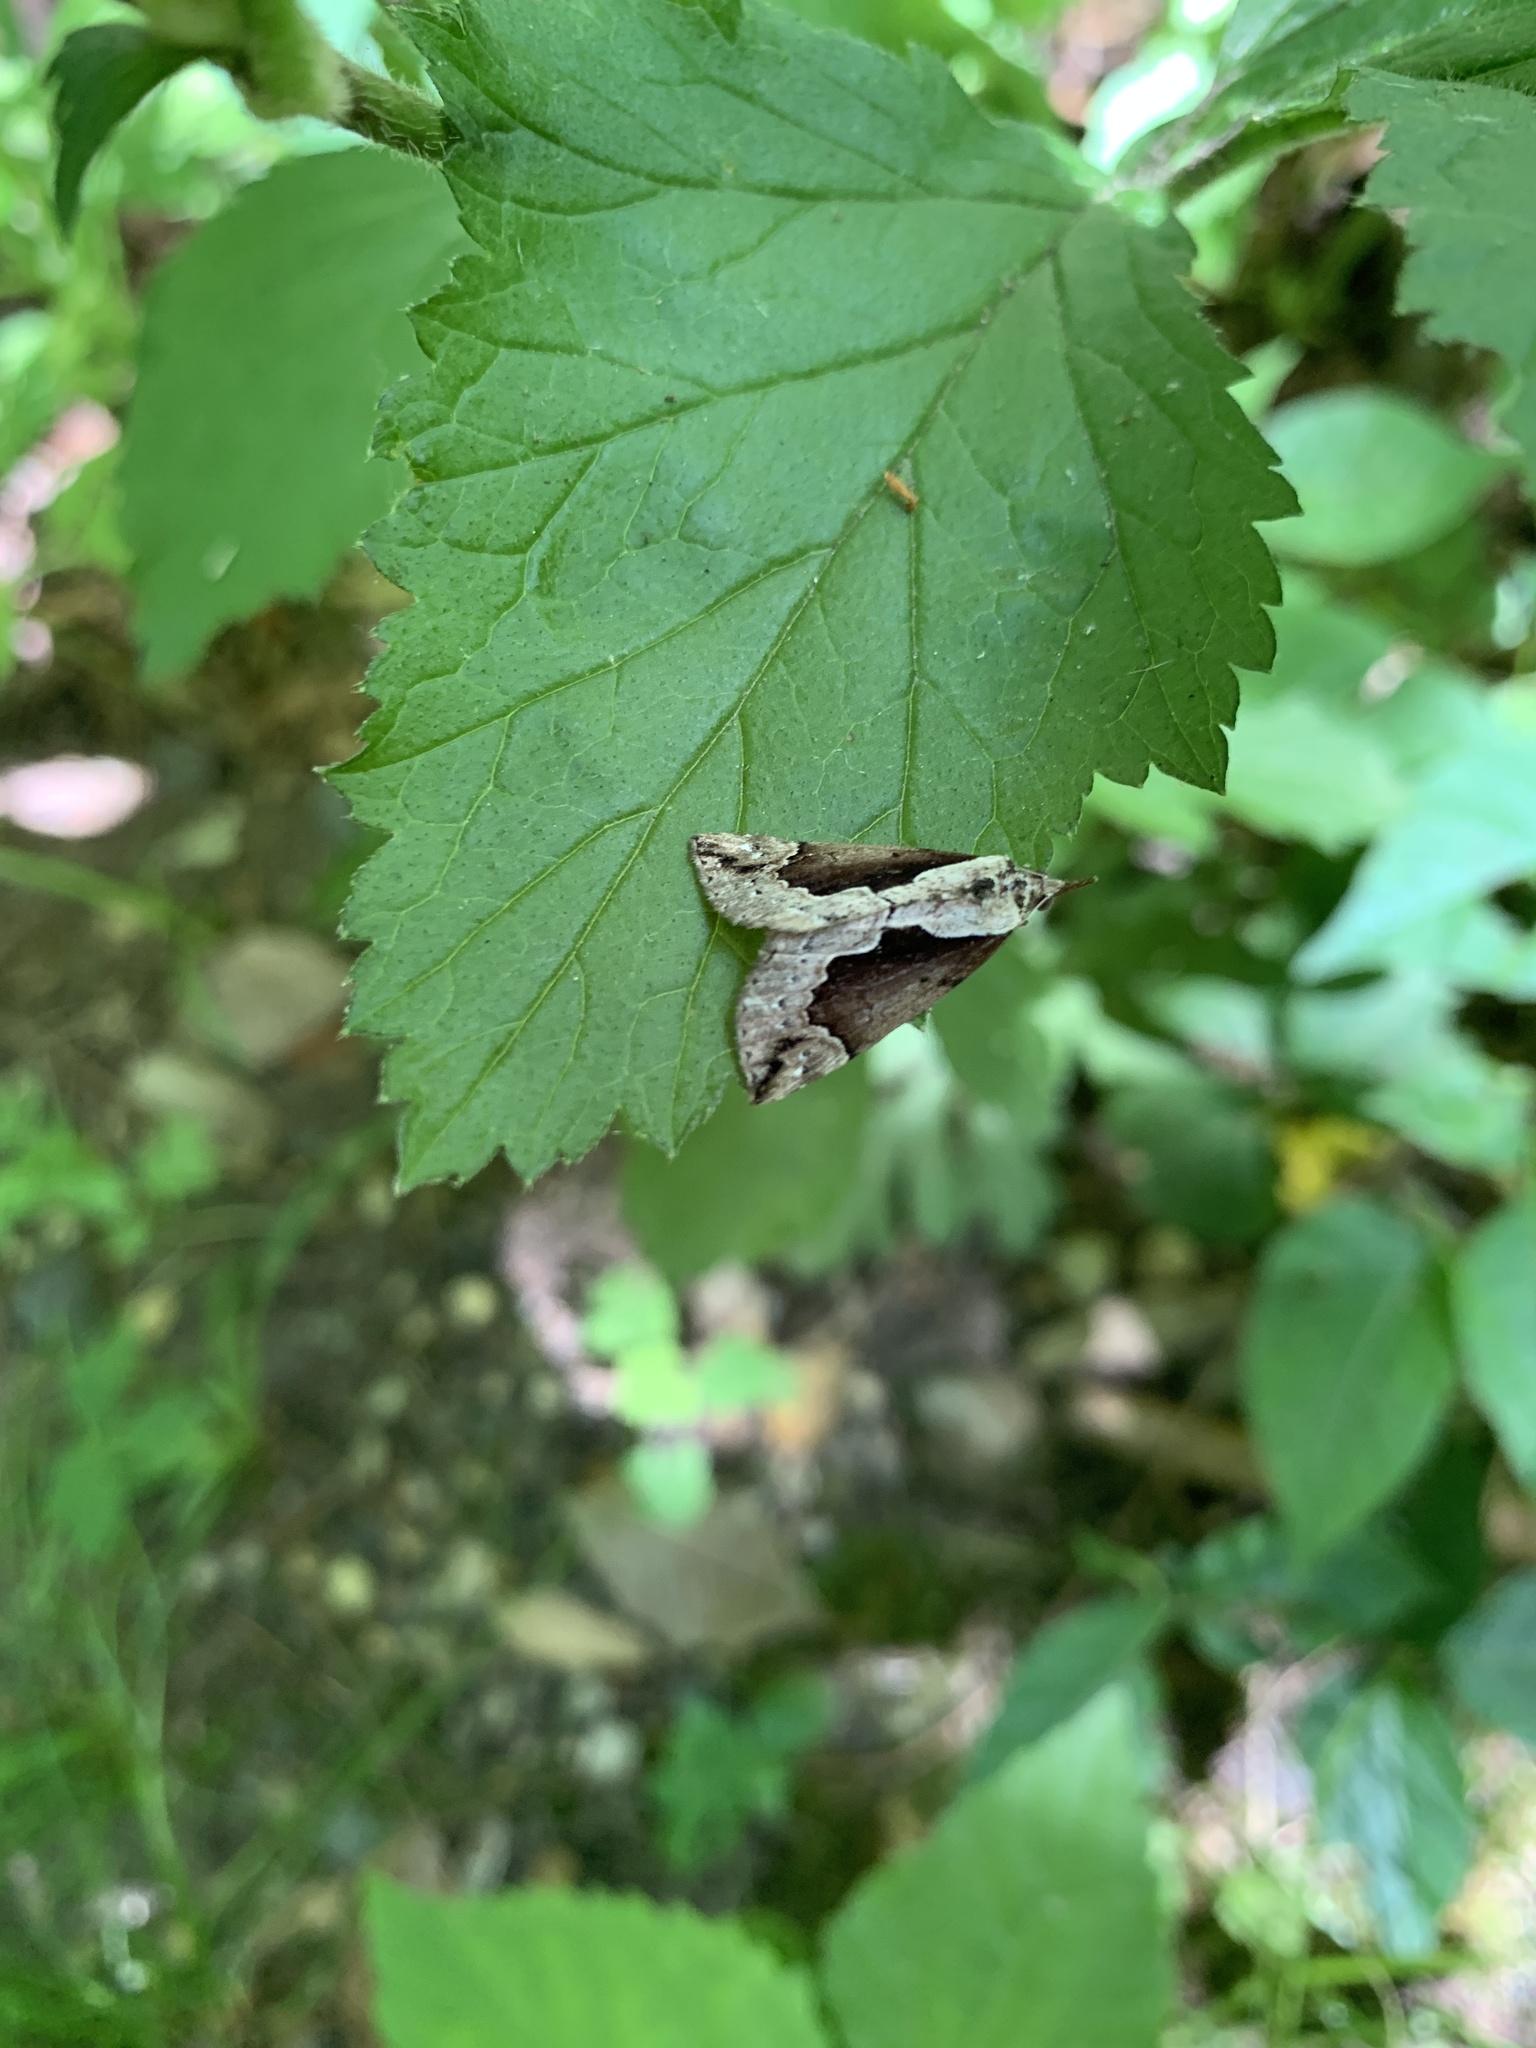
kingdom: Animalia
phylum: Arthropoda
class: Insecta
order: Lepidoptera
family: Erebidae
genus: Hypena
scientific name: Hypena baltimoralis
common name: Baltimore snout
